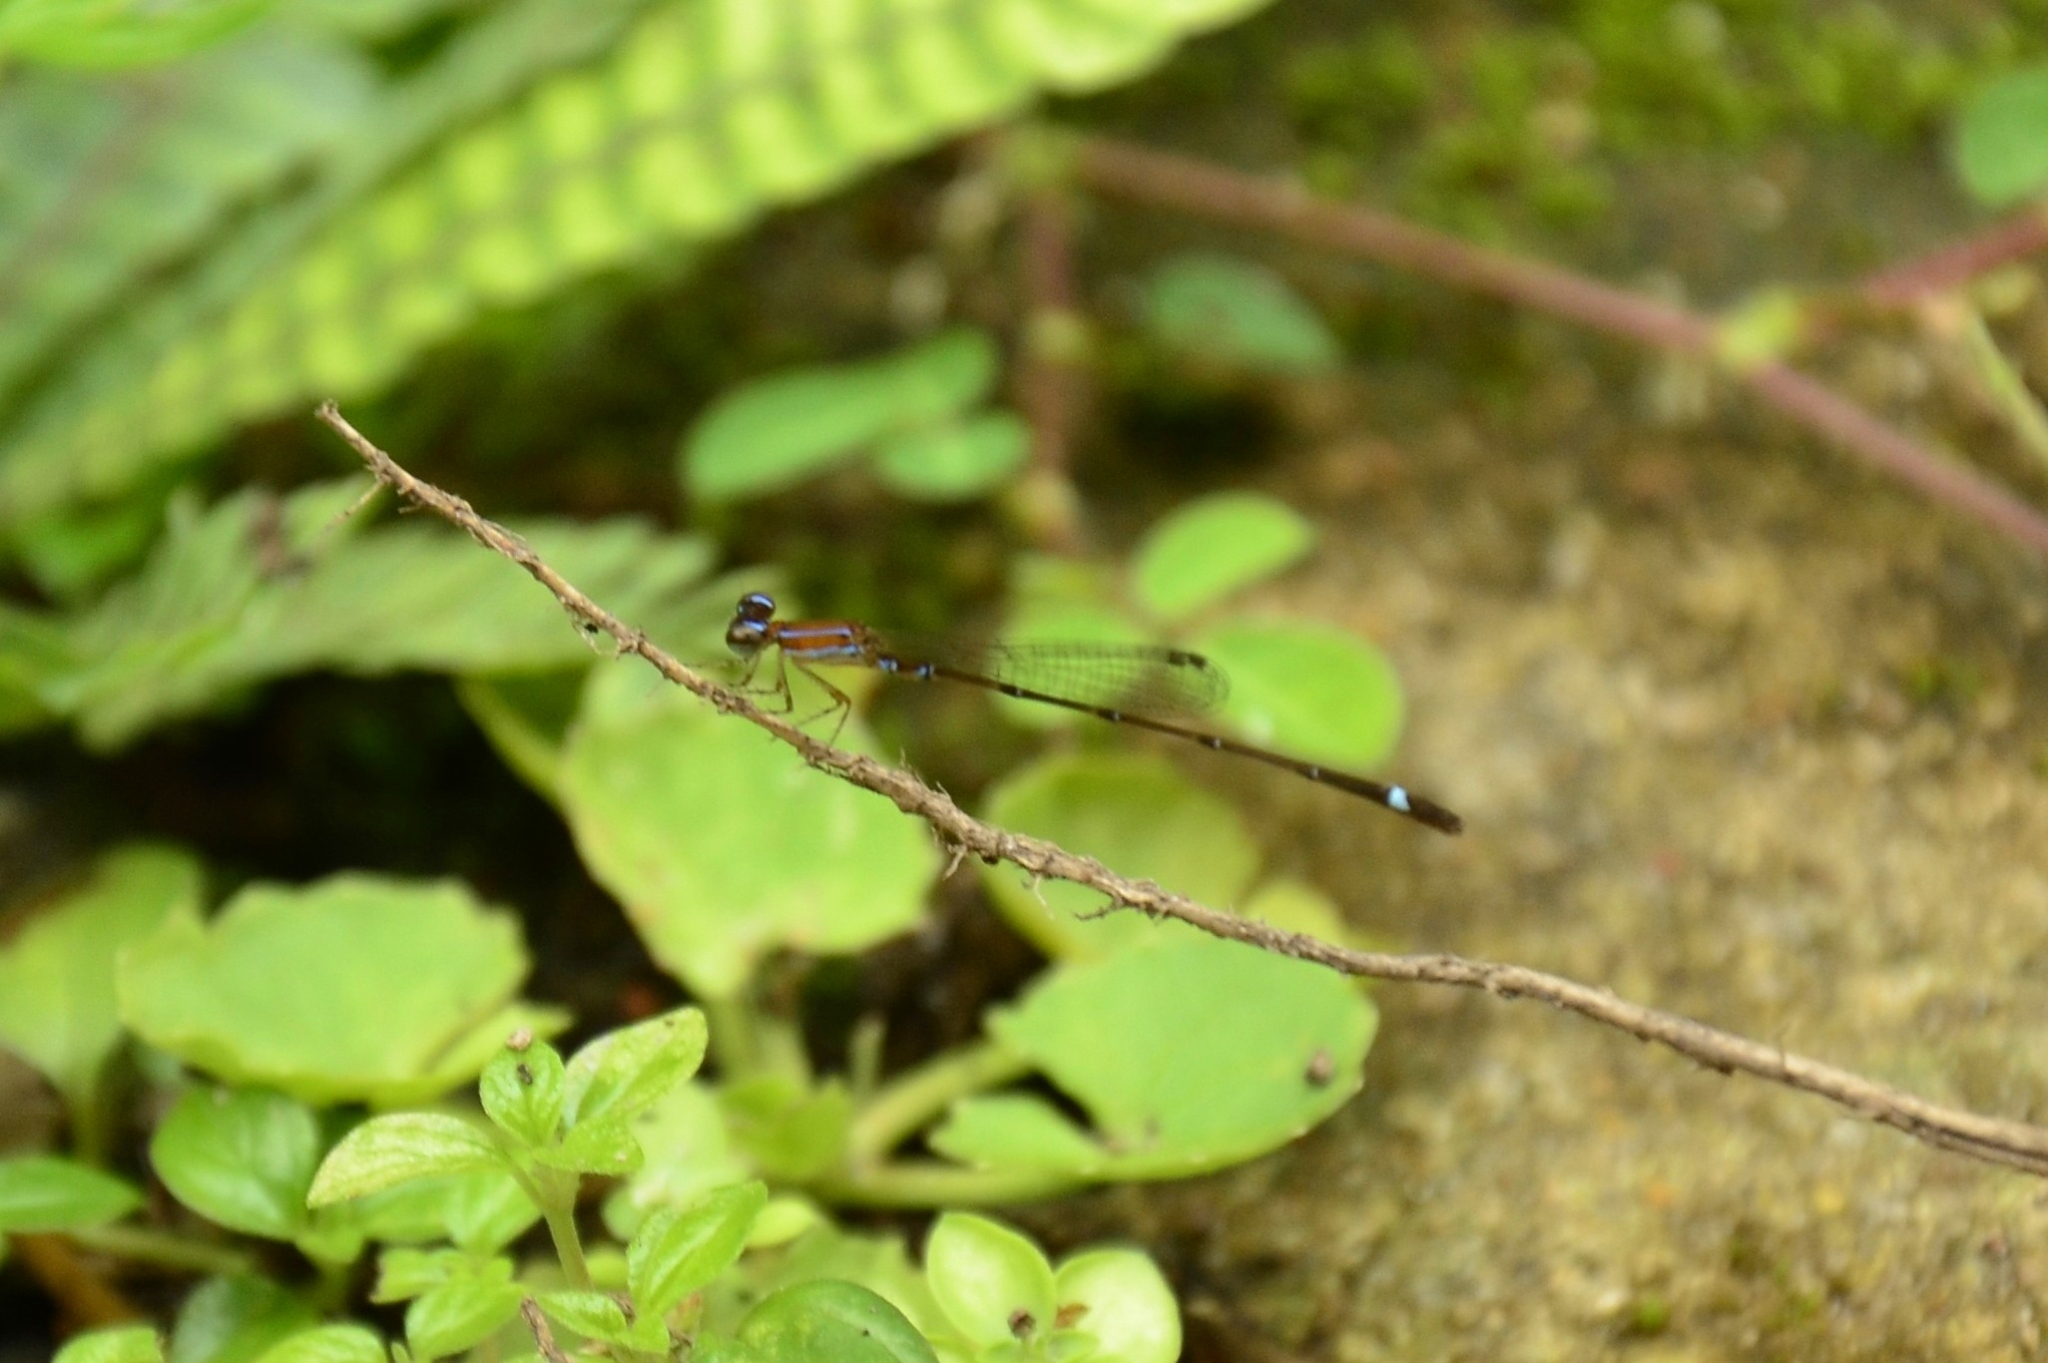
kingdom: Animalia
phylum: Arthropoda
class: Insecta
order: Odonata
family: Coenagrionidae
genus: Mortonagrion
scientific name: Mortonagrion varralli
